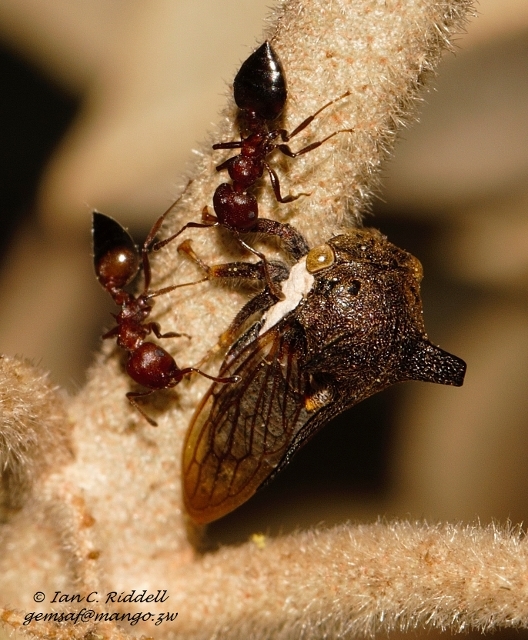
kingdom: Animalia
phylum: Arthropoda
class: Insecta
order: Hymenoptera
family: Formicidae
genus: Crematogaster
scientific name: Crematogaster castanea
